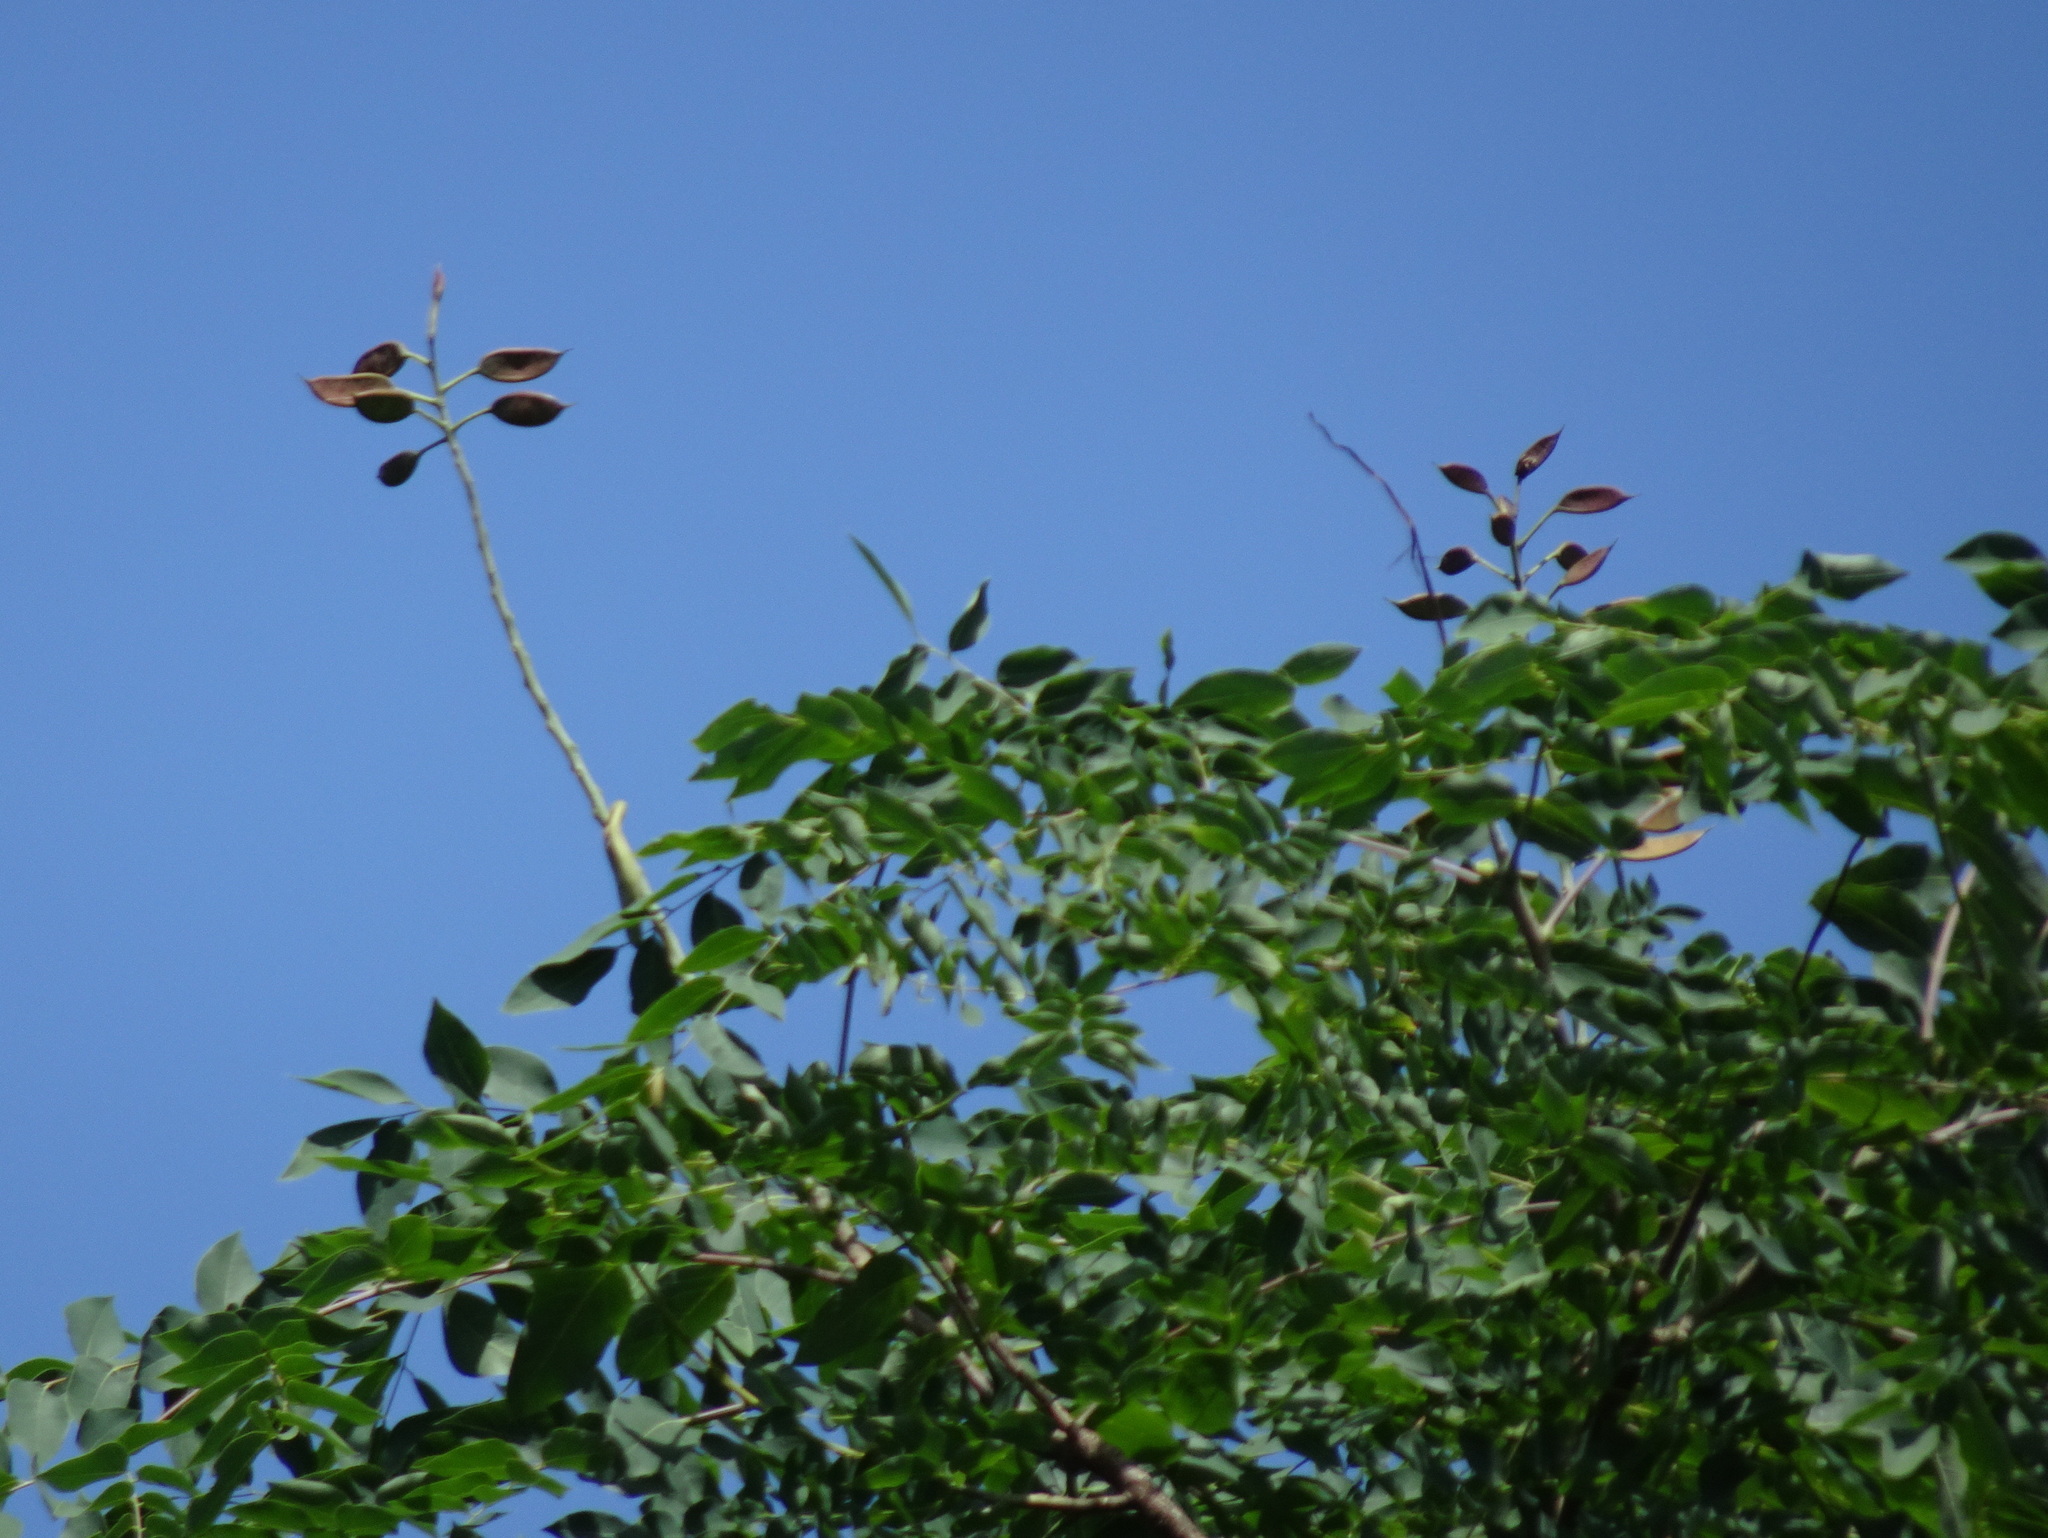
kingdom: Plantae
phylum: Tracheophyta
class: Magnoliopsida
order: Fabales
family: Fabaceae
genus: Gymnocladus
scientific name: Gymnocladus dioicus
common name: Kentucky coffee-tree
